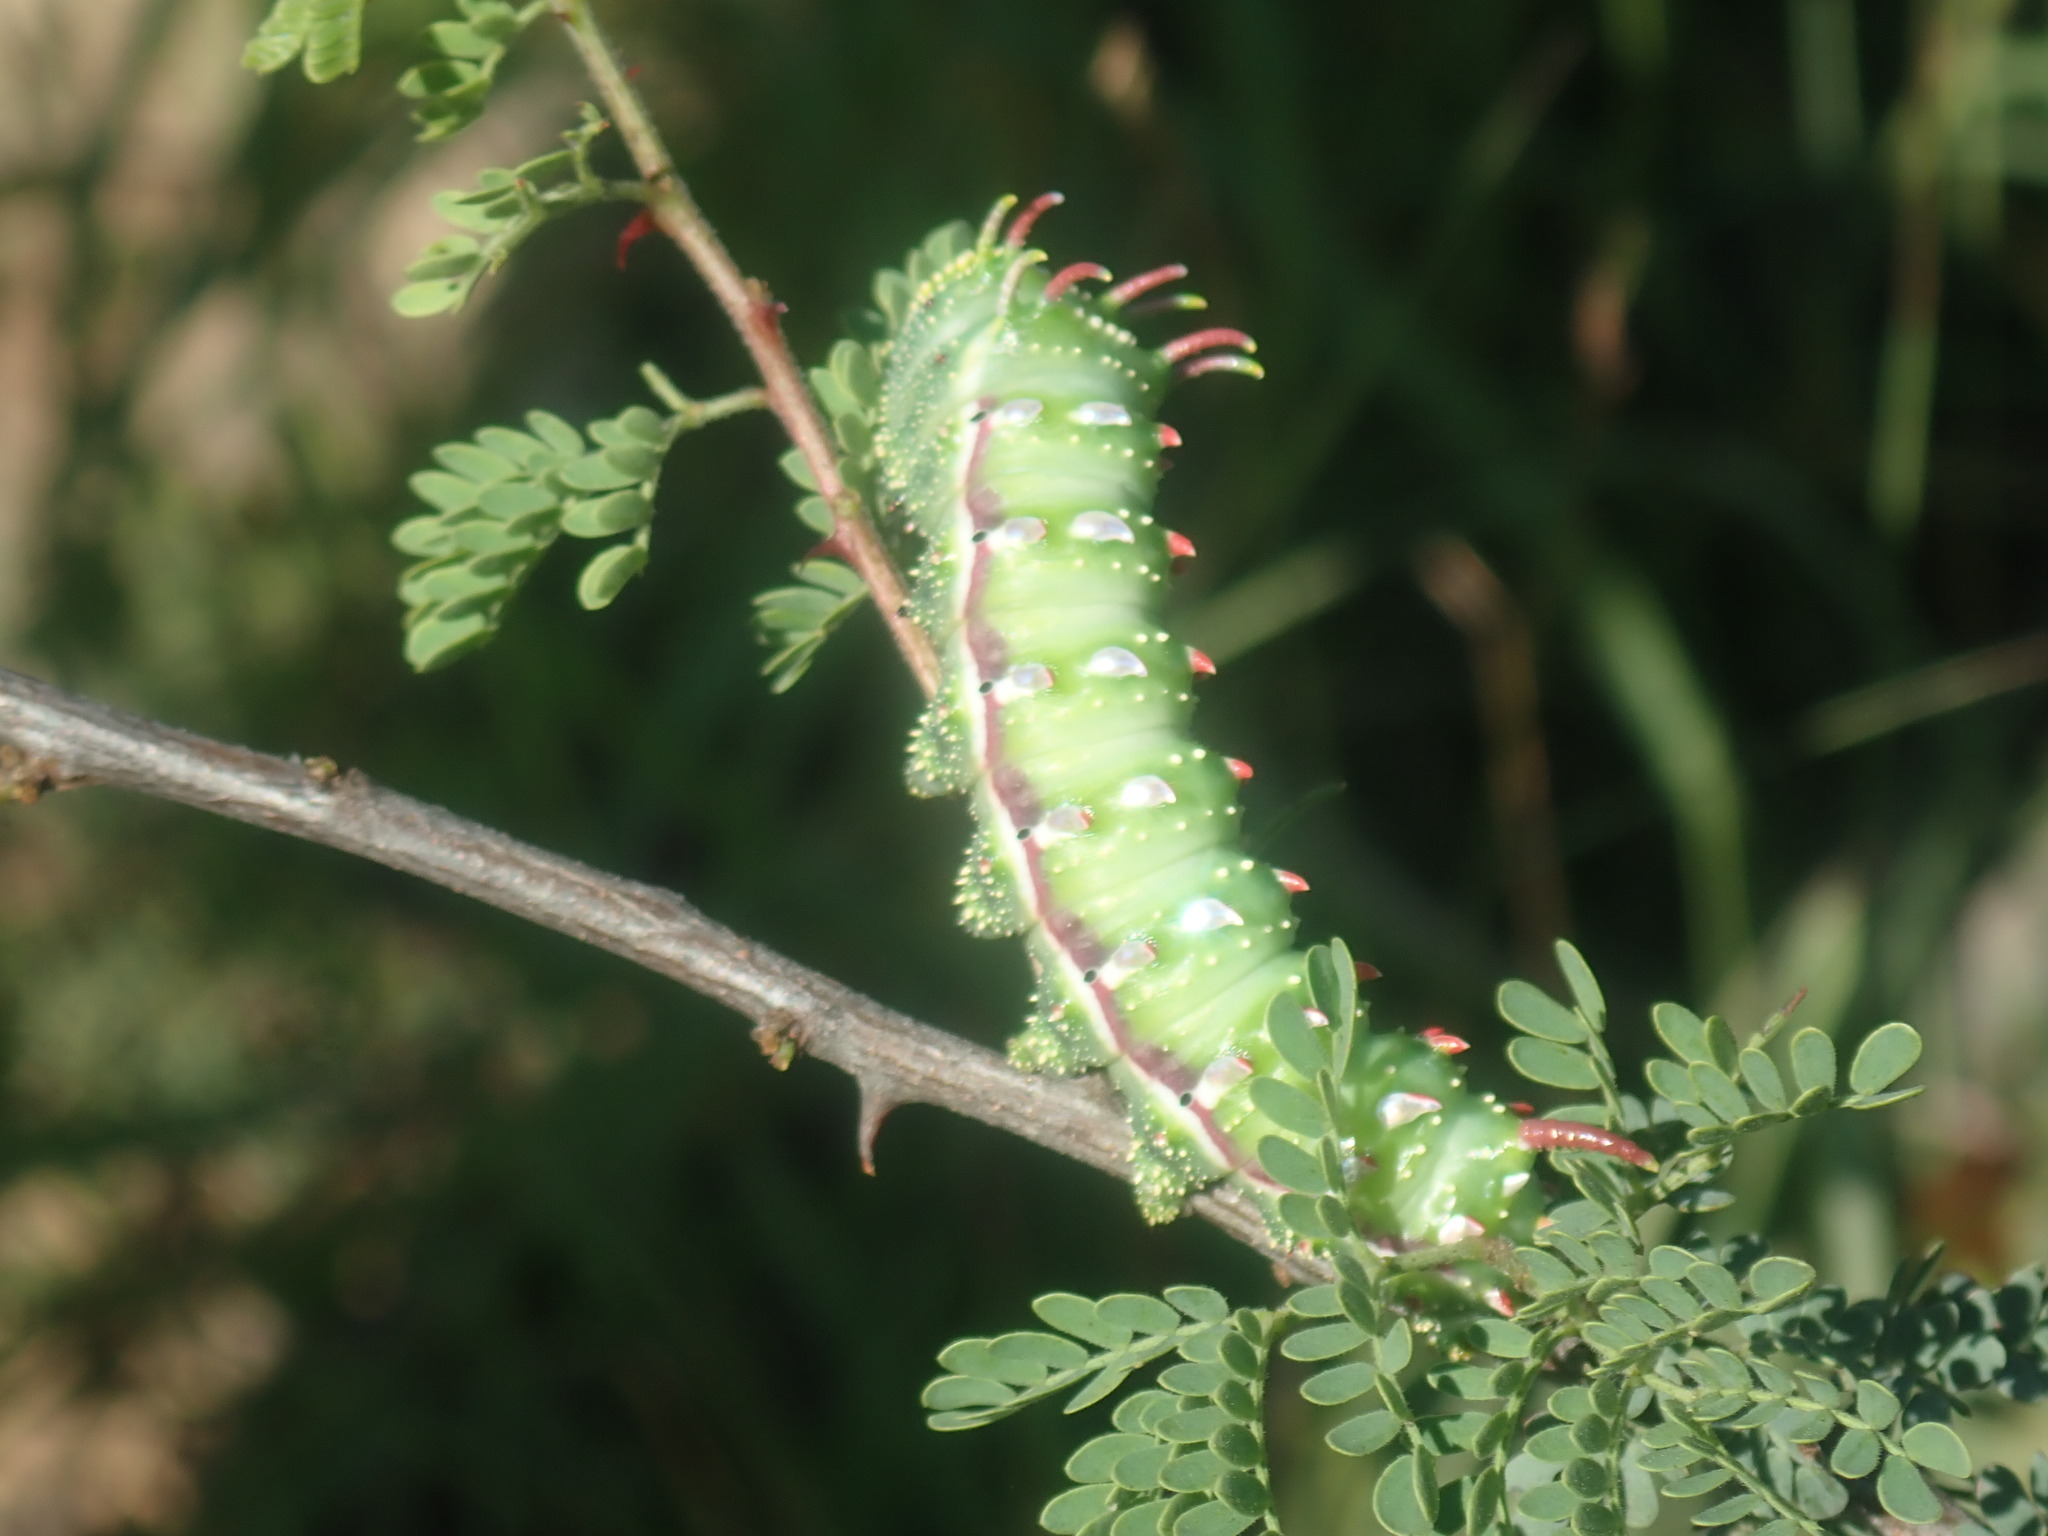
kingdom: Animalia
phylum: Arthropoda
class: Insecta
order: Lepidoptera
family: Saturniidae
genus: Syssphinx
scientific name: Syssphinx hubbardi
